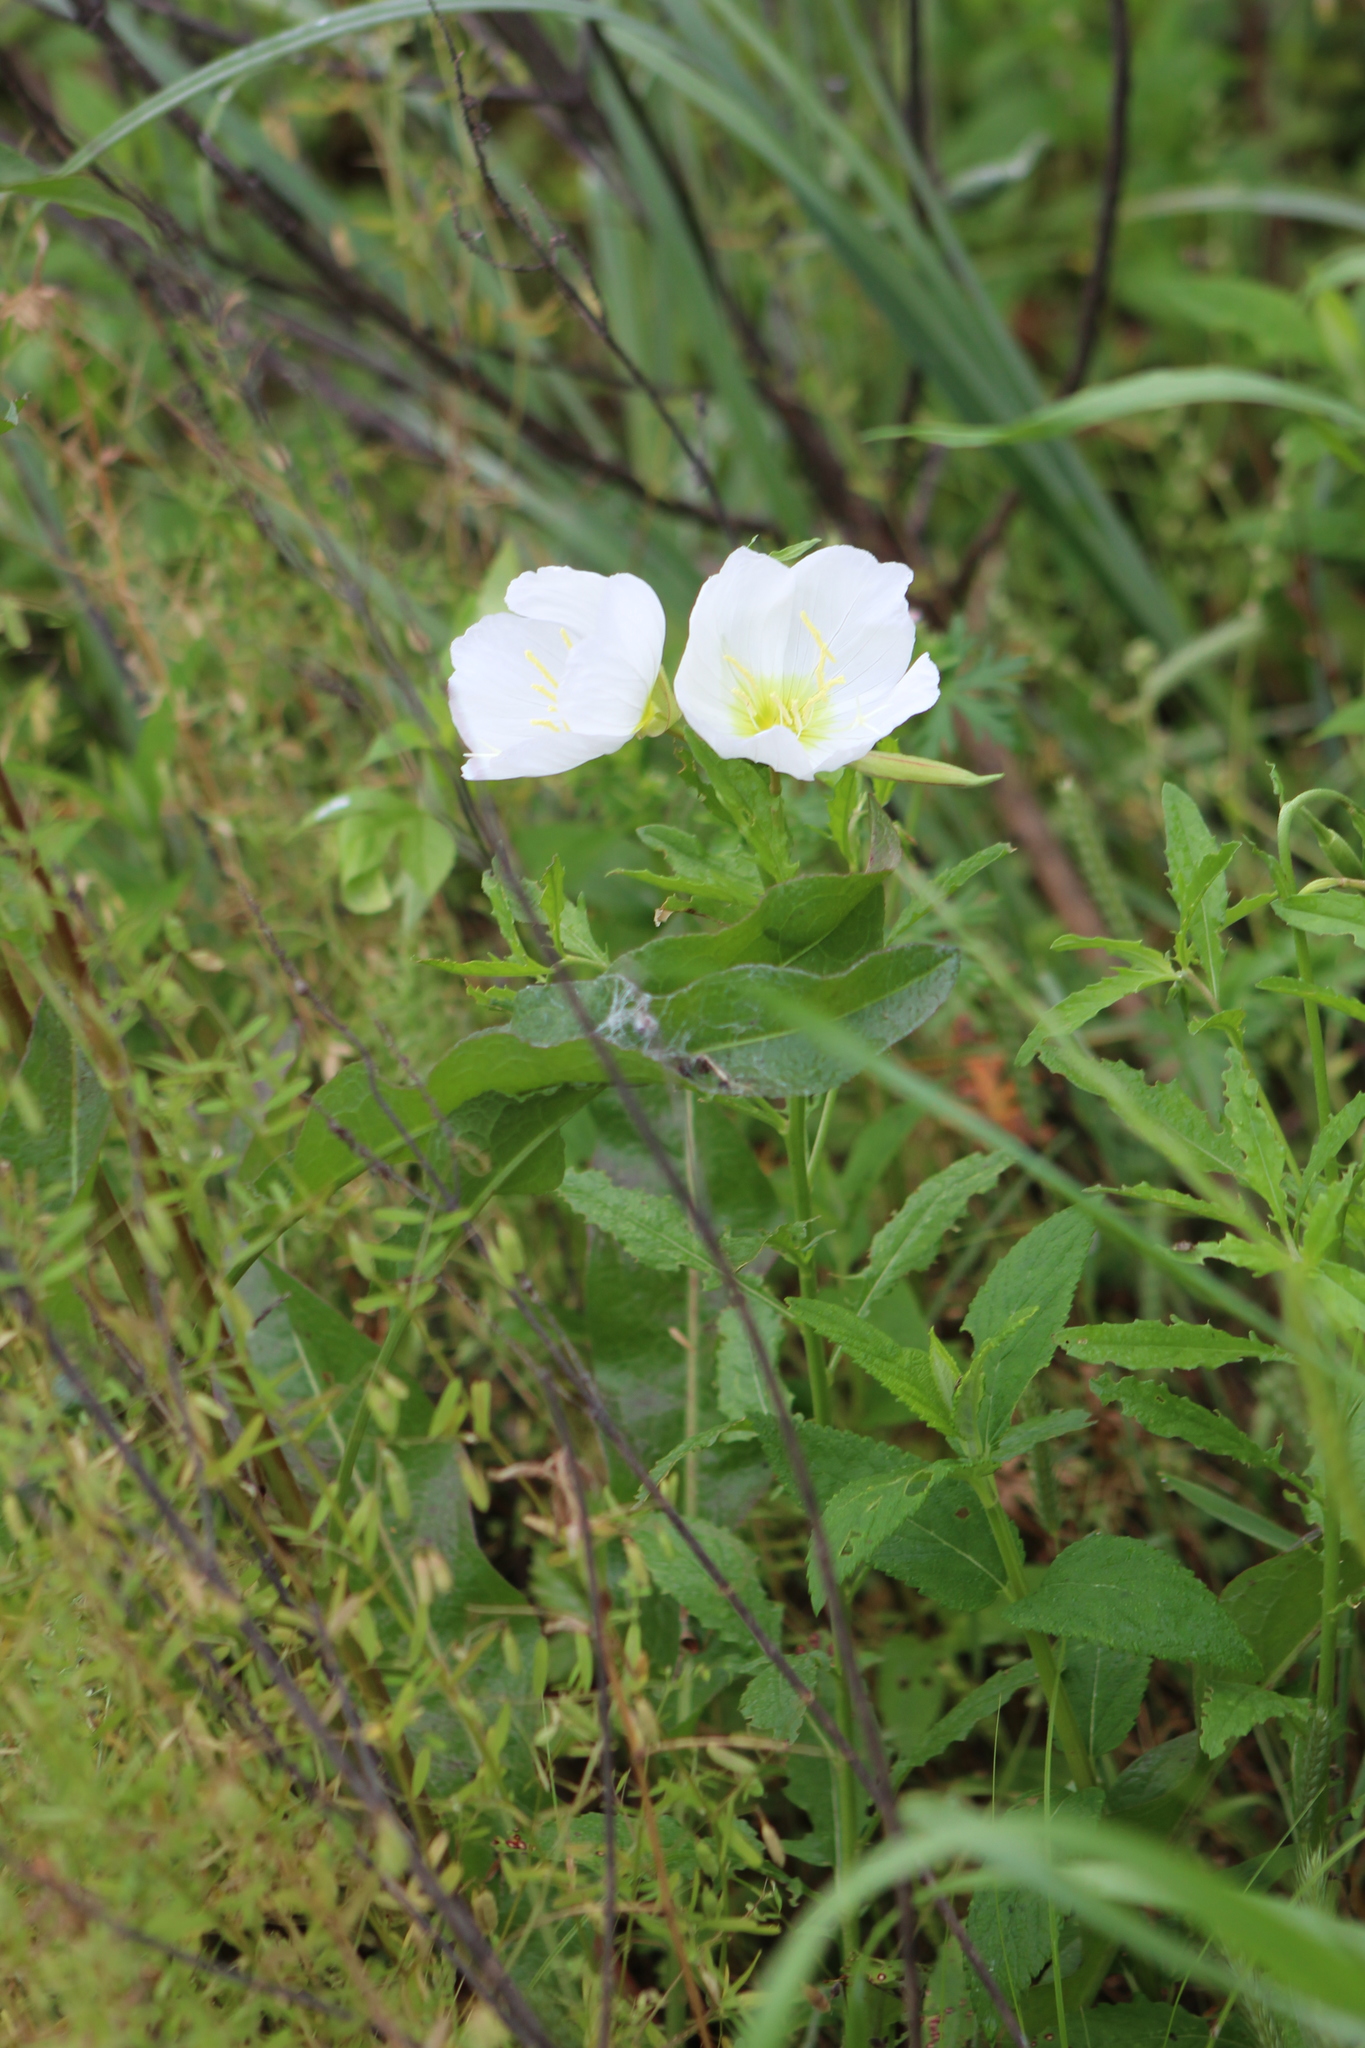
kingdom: Plantae
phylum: Tracheophyta
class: Magnoliopsida
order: Myrtales
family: Onagraceae
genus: Oenothera
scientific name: Oenothera speciosa
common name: White evening-primrose
